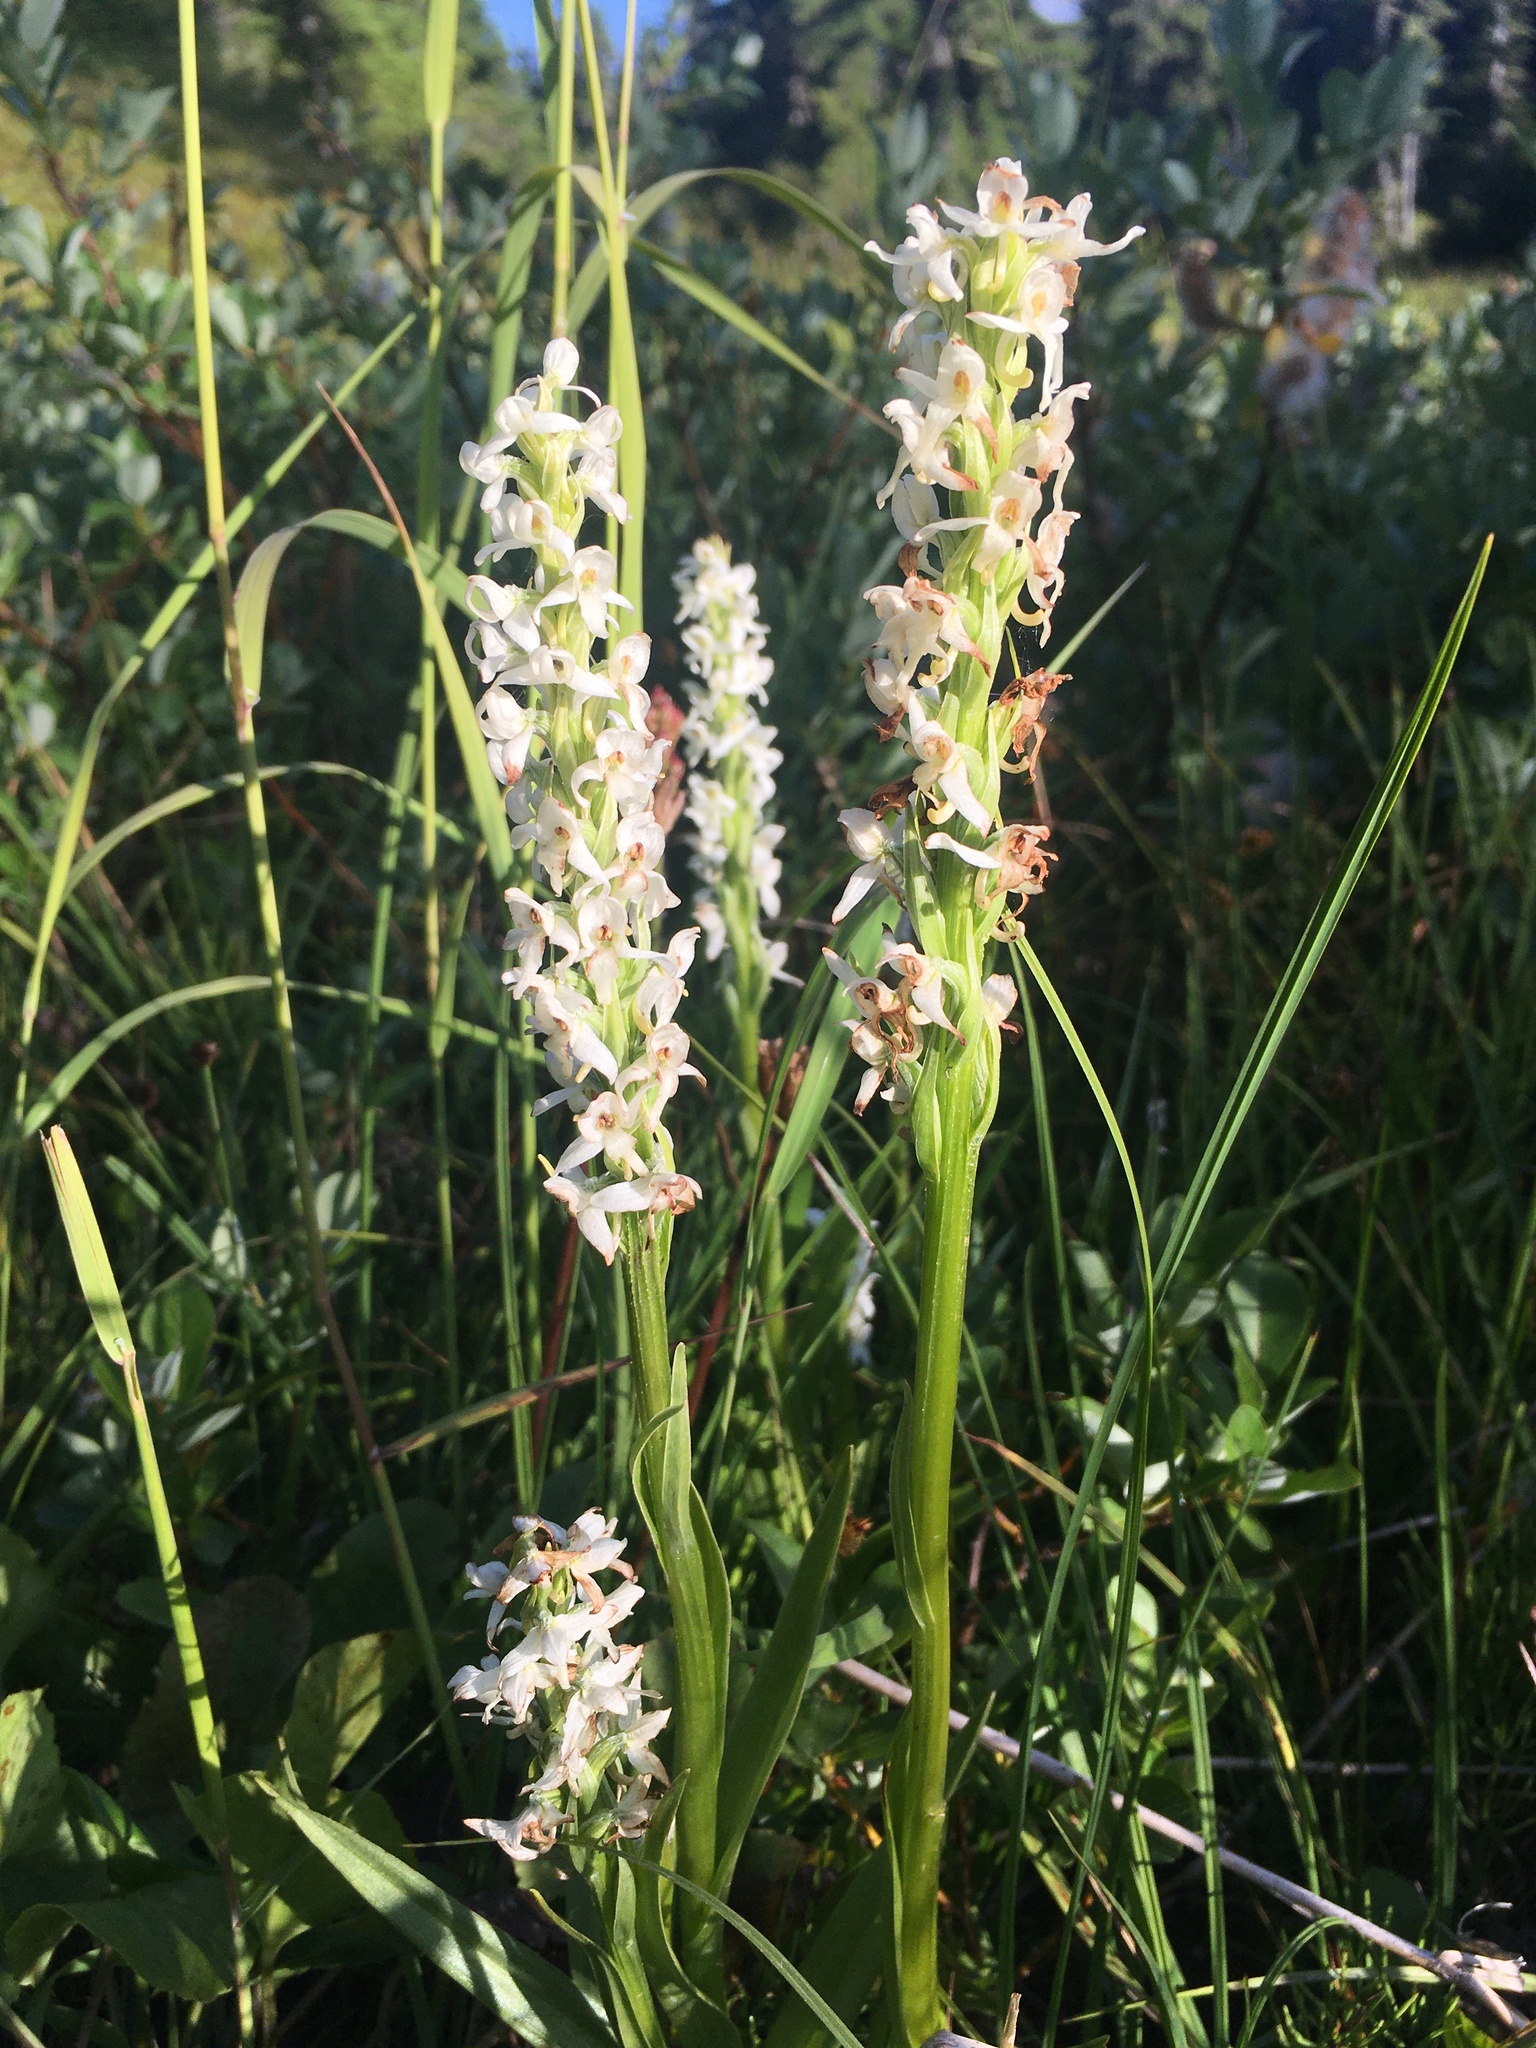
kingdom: Plantae
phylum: Tracheophyta
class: Liliopsida
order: Asparagales
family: Orchidaceae
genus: Platanthera
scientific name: Platanthera dilatata
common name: Bog candles
